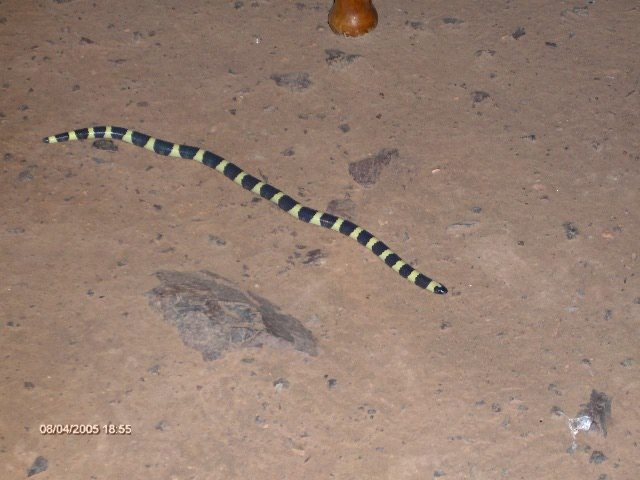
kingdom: Animalia
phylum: Chordata
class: Squamata
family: Colubridae
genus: Sympholis
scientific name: Sympholis lippiens
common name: Mexican short-tail snake
